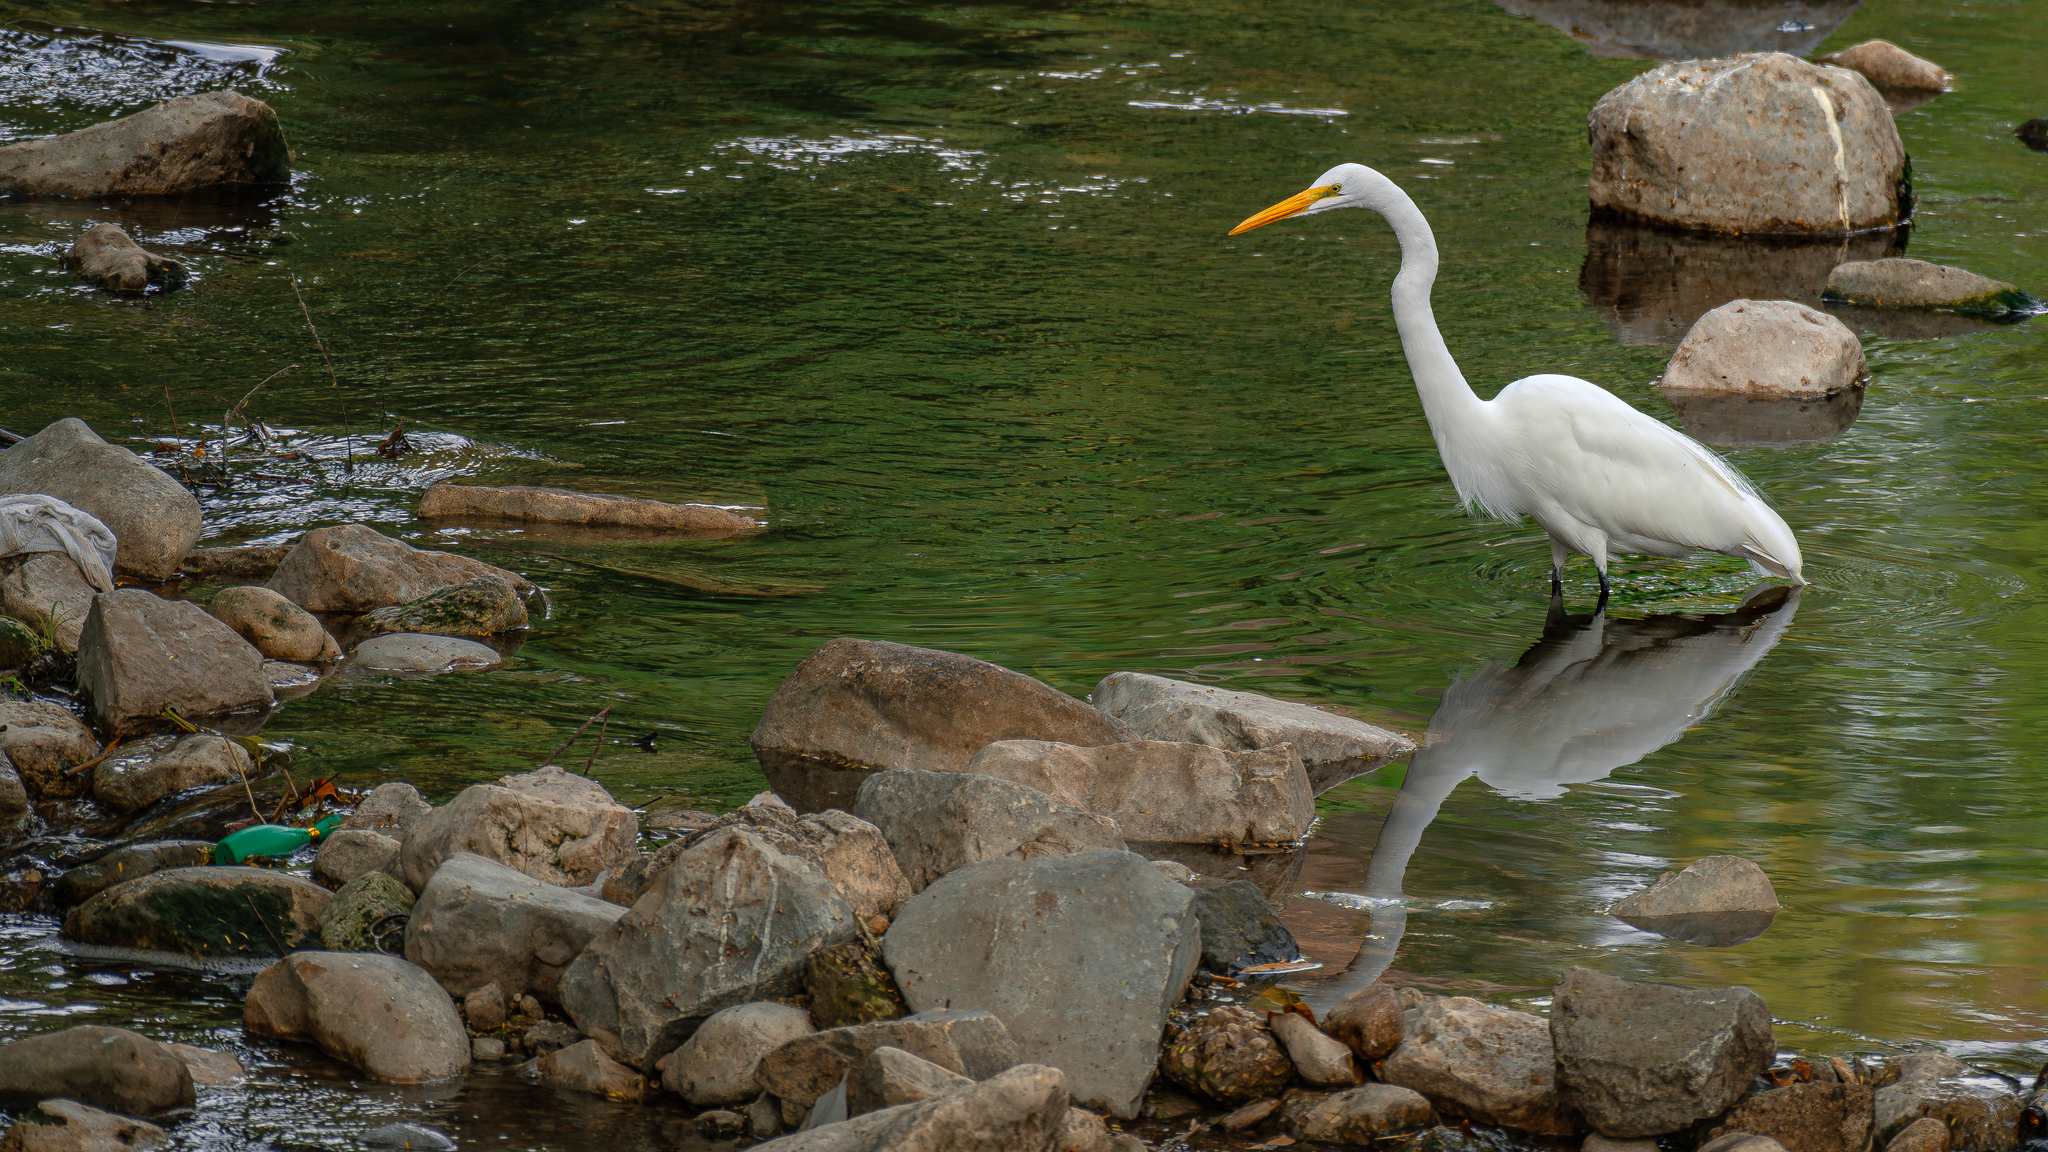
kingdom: Animalia
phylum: Chordata
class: Aves
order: Pelecaniformes
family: Ardeidae
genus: Ardea
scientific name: Ardea alba
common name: Great egret
